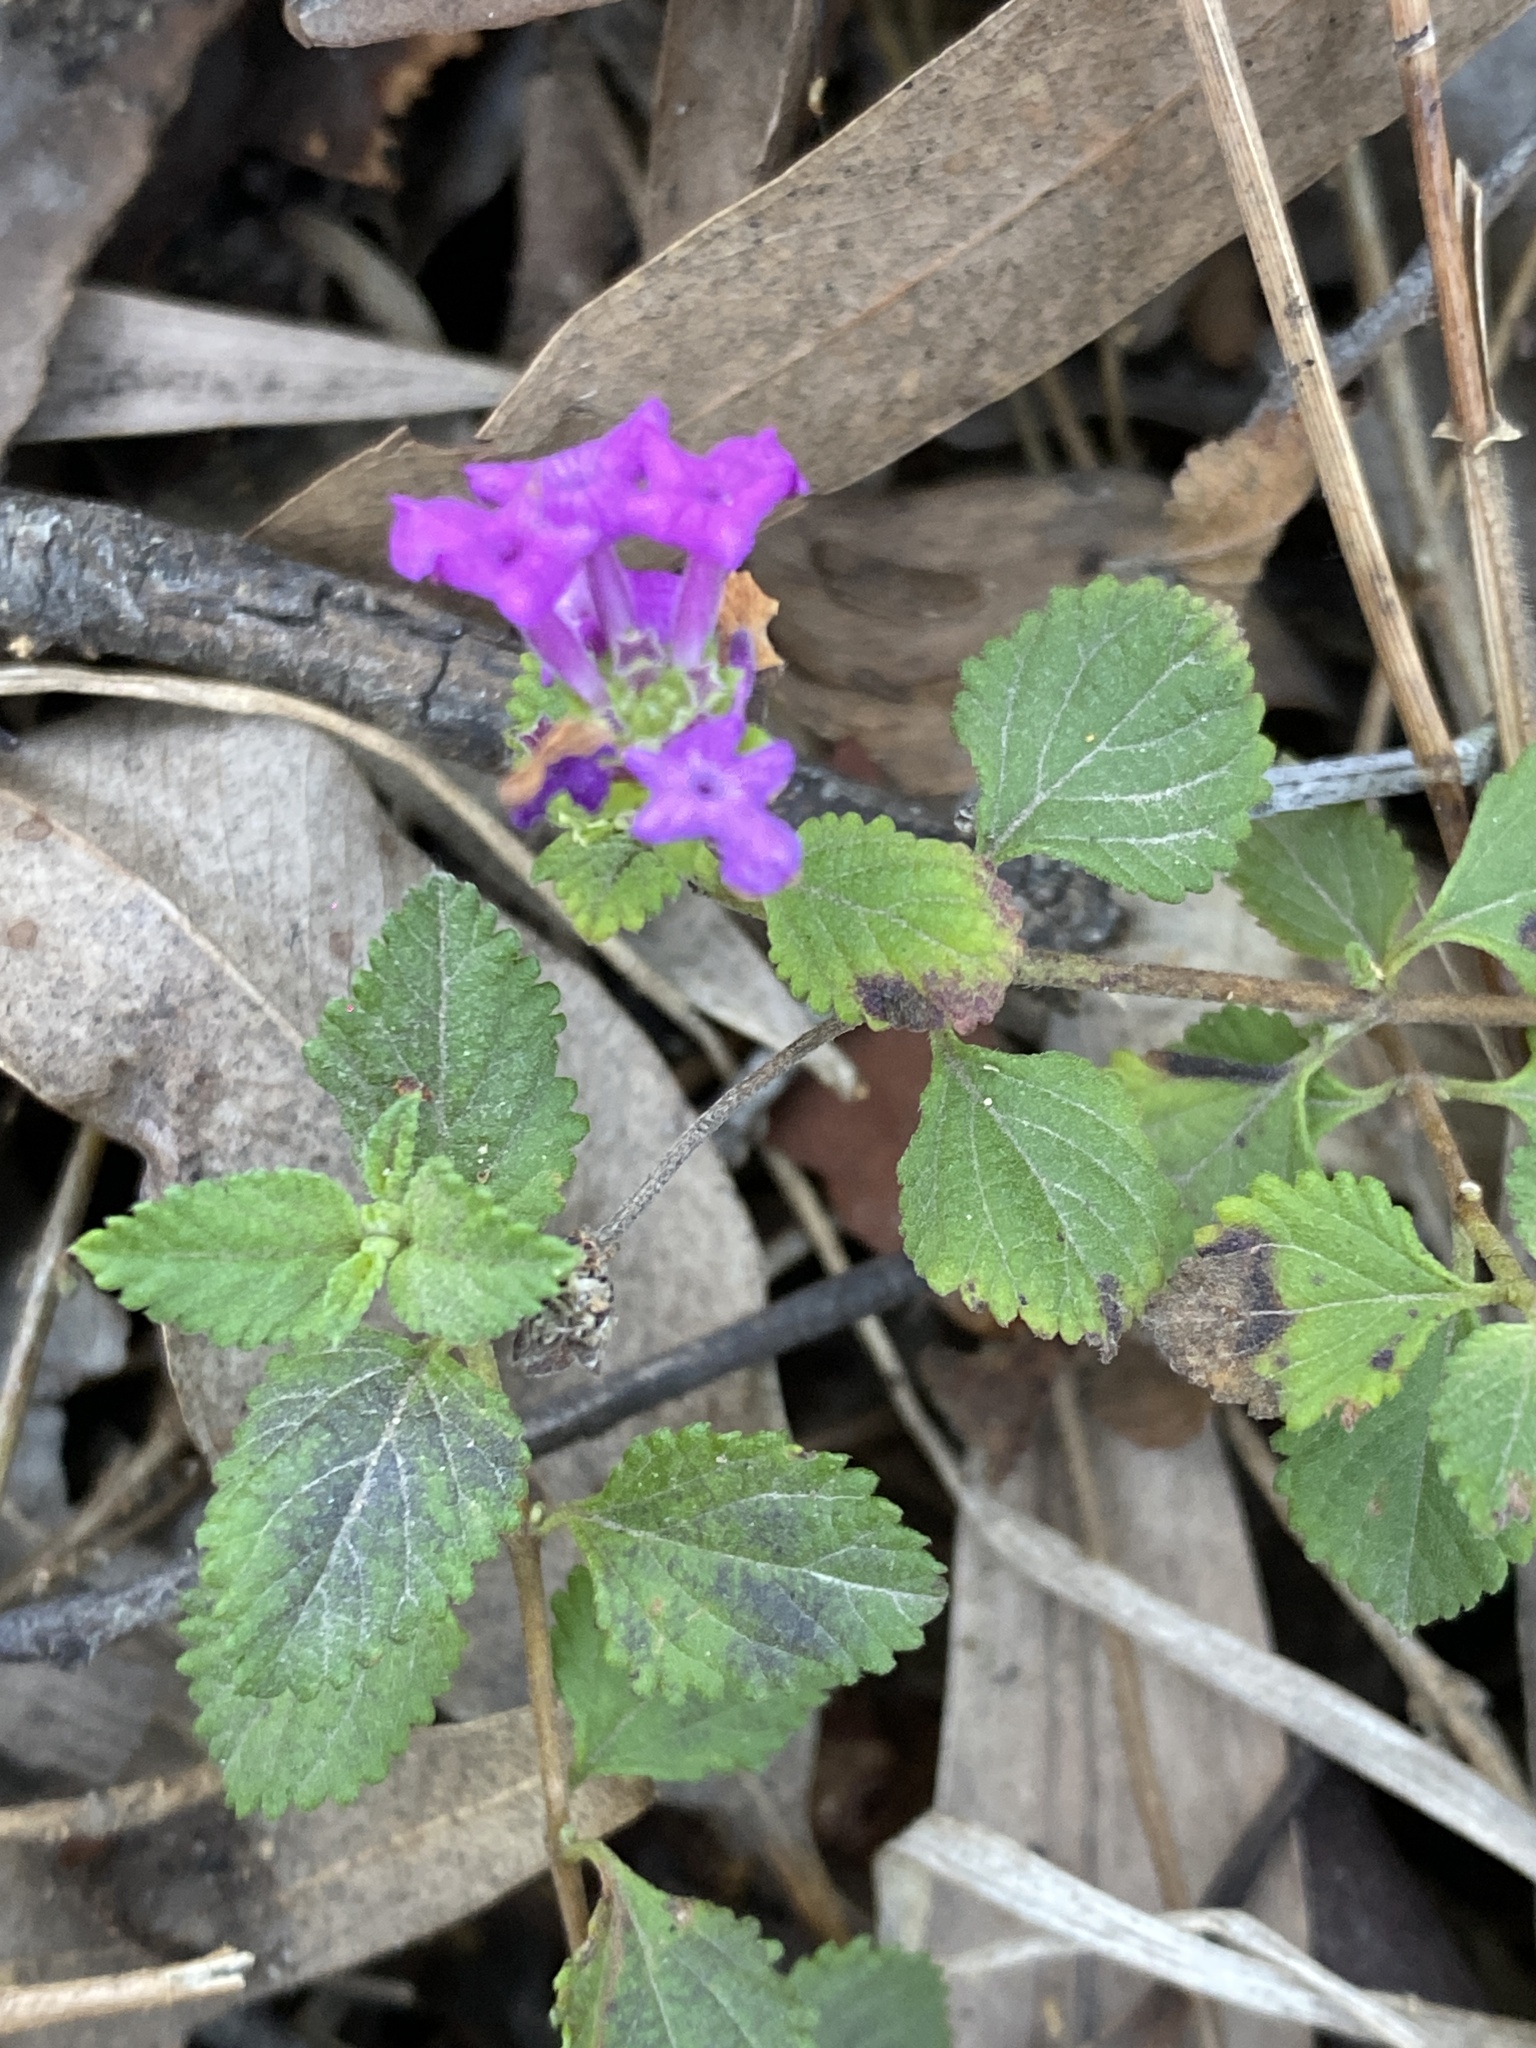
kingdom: Plantae
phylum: Tracheophyta
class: Magnoliopsida
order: Lamiales
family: Verbenaceae
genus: Lantana
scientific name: Lantana montevidensis
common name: Trailing shrubverbena
